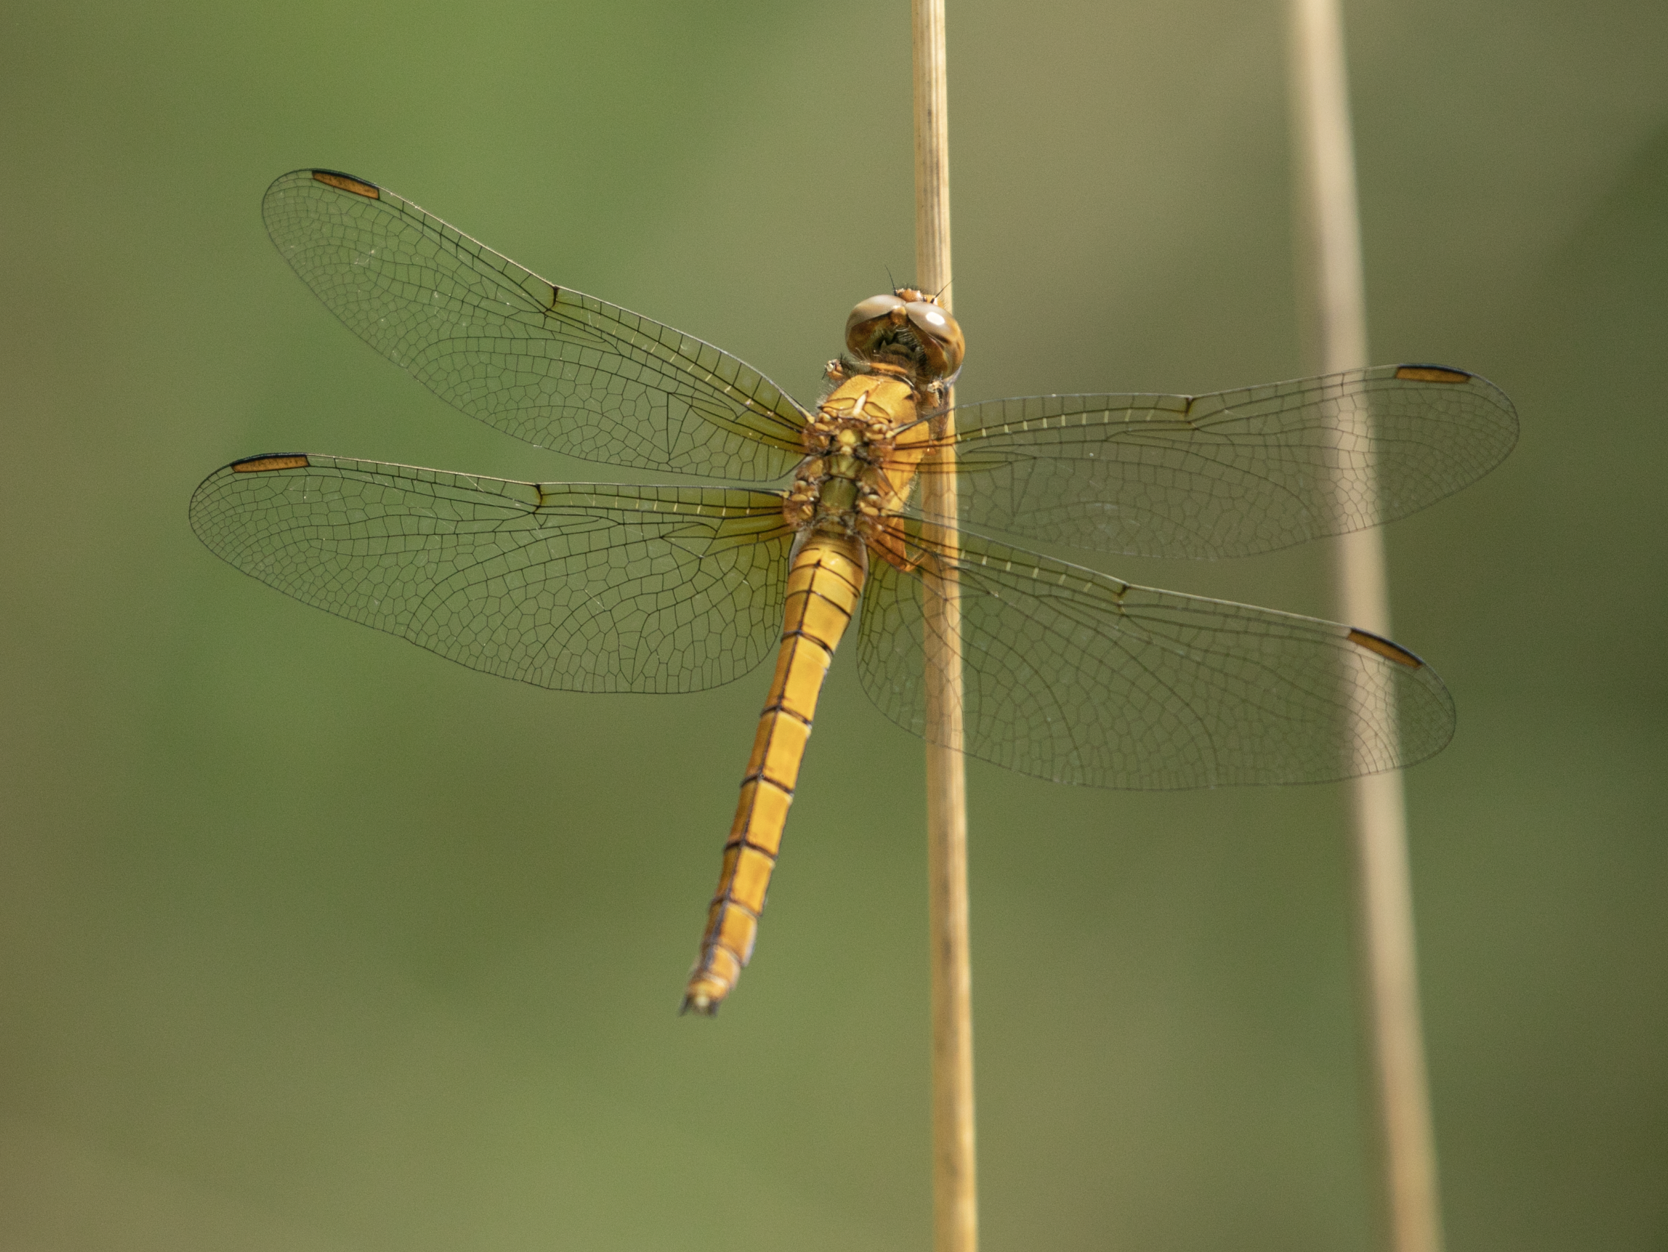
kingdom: Animalia
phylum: Arthropoda
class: Insecta
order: Odonata
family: Libellulidae
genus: Orthetrum
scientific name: Orthetrum coerulescens
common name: Keeled skimmer
